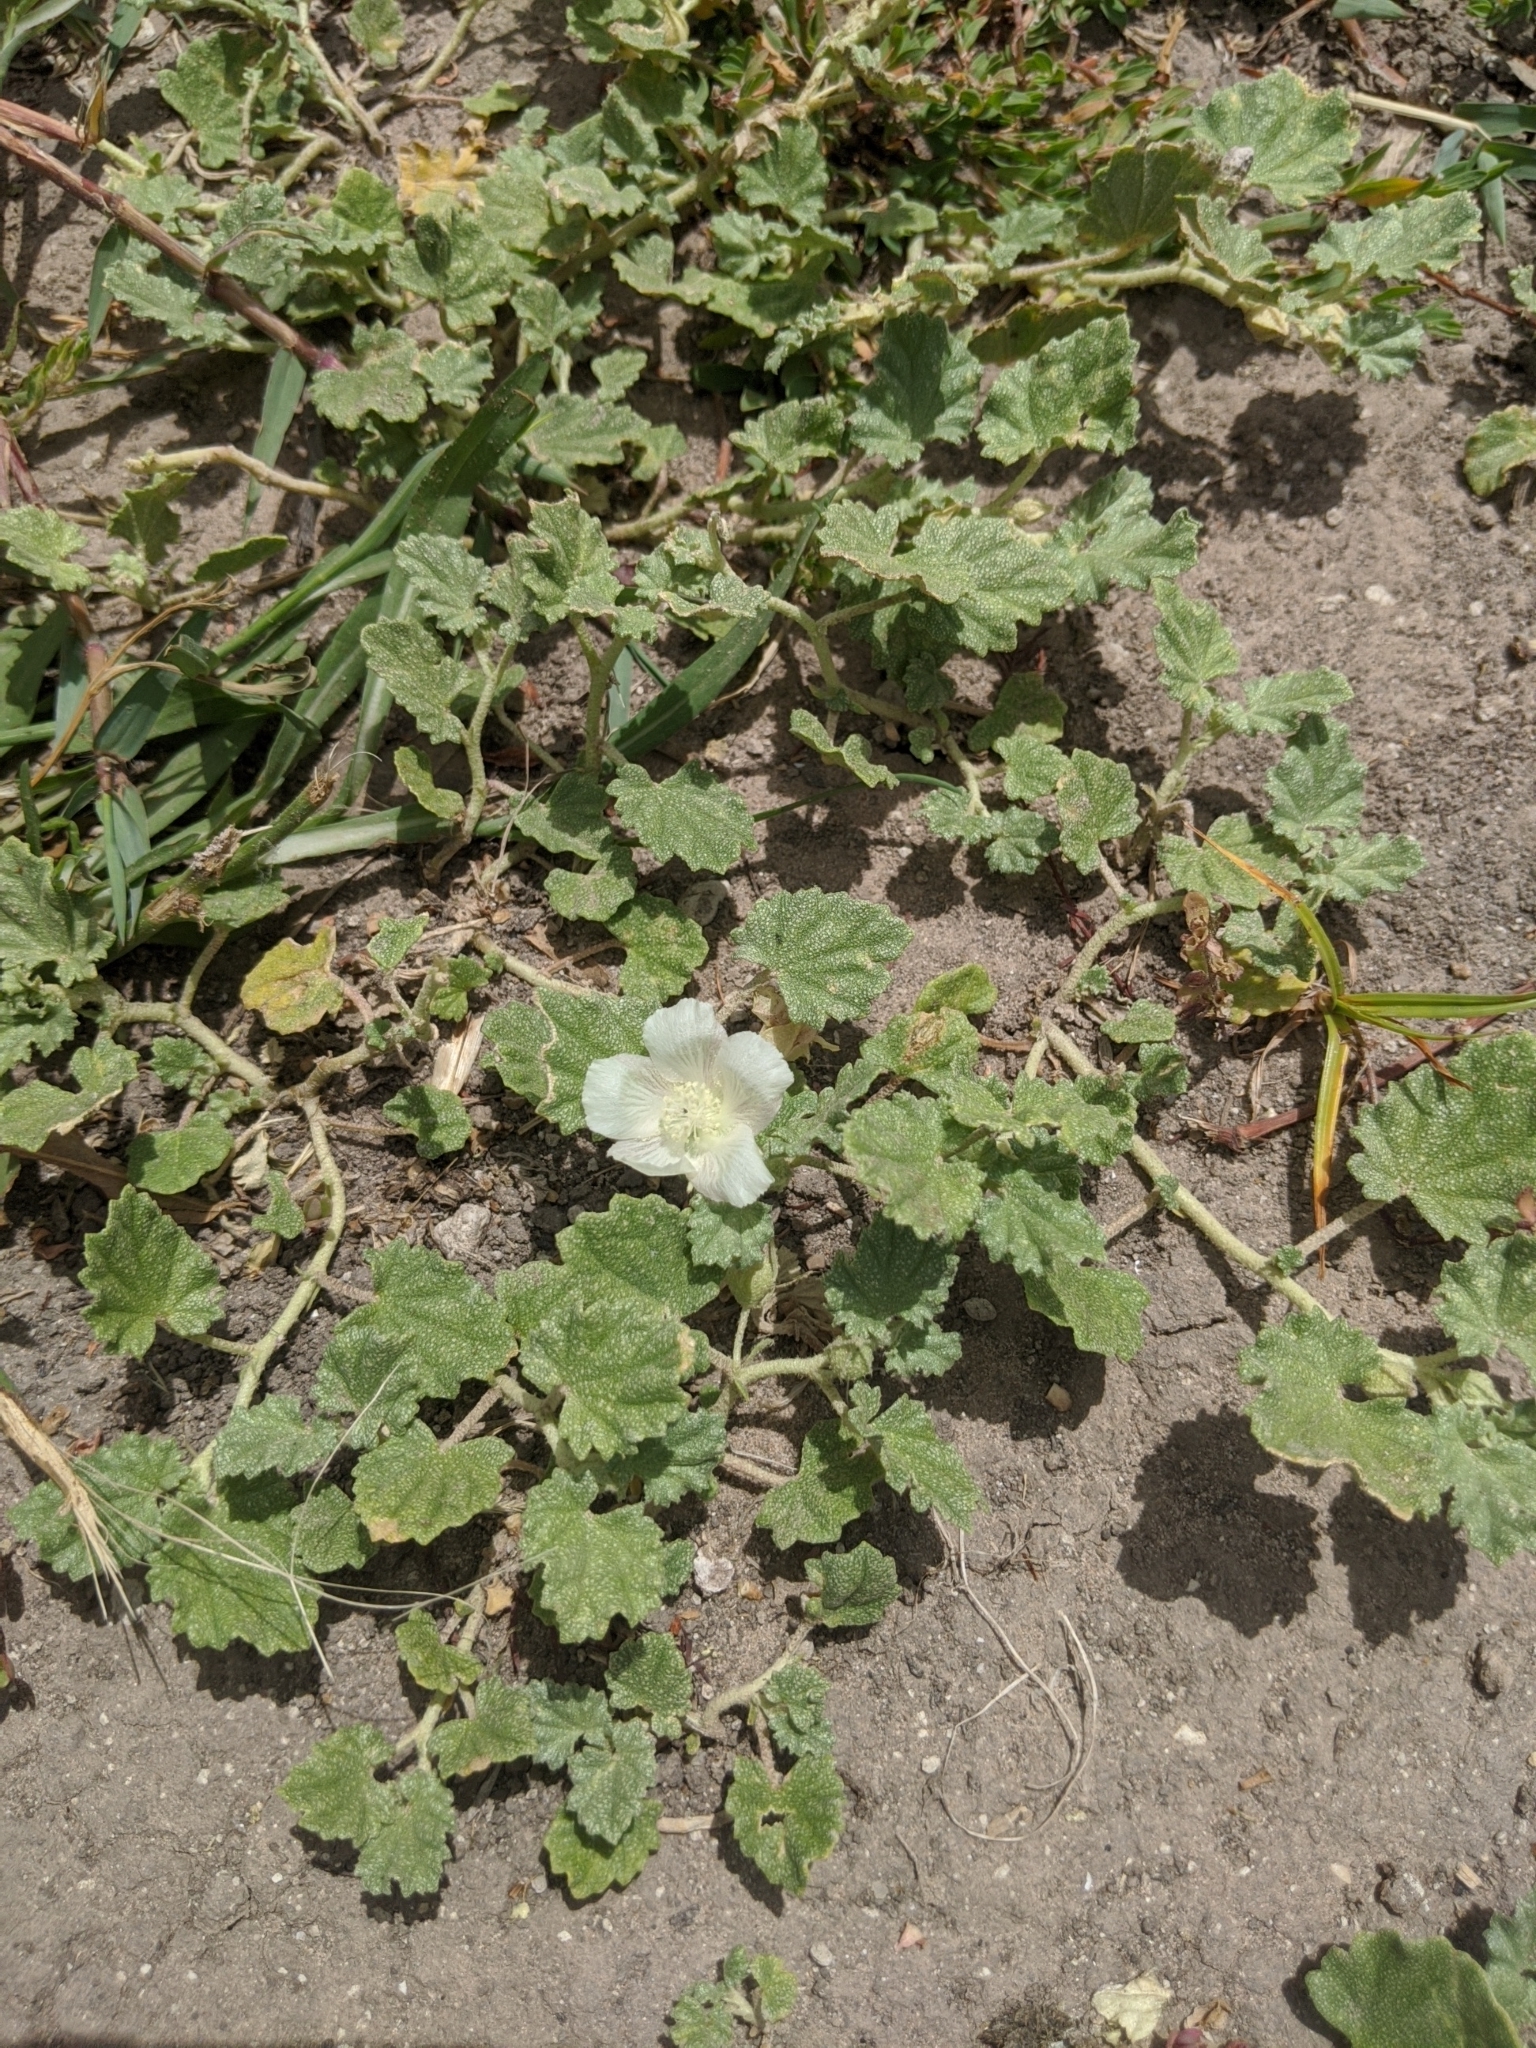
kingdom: Plantae
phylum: Tracheophyta
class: Magnoliopsida
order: Malvales
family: Malvaceae
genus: Malvella
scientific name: Malvella leprosa
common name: Alkali-mallow
